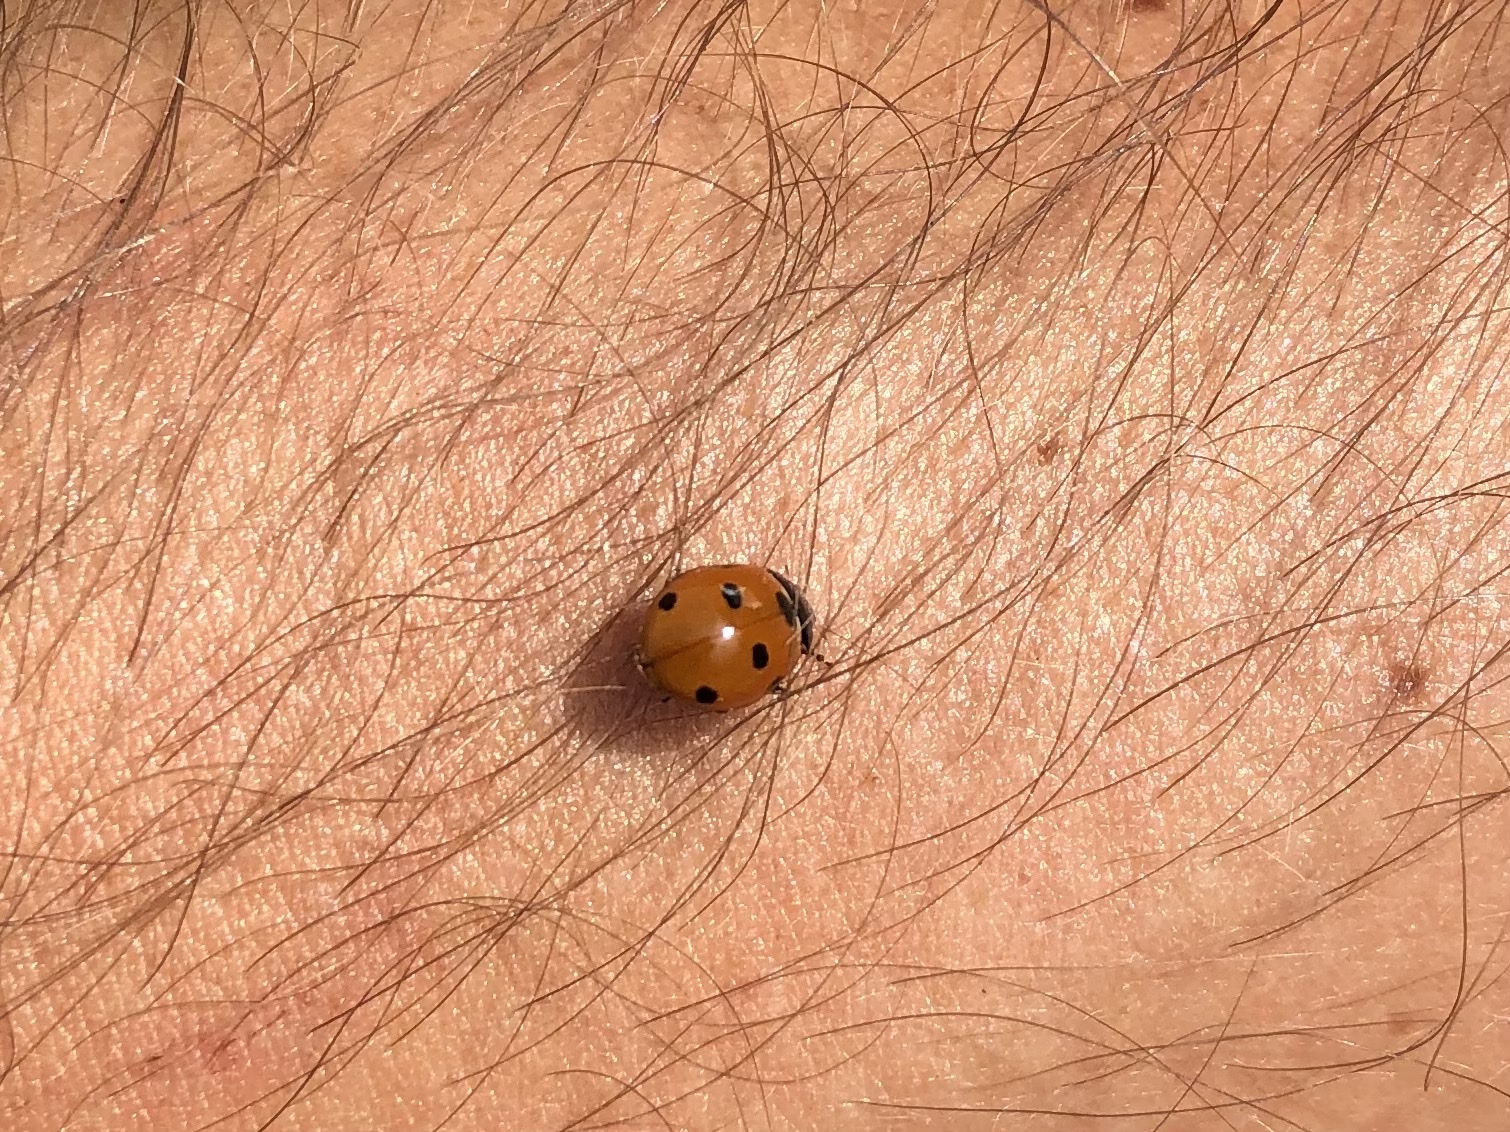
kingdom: Animalia
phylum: Arthropoda
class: Insecta
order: Coleoptera
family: Coccinellidae
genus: Coccinella
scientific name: Coccinella septempunctata
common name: Sevenspotted lady beetle
